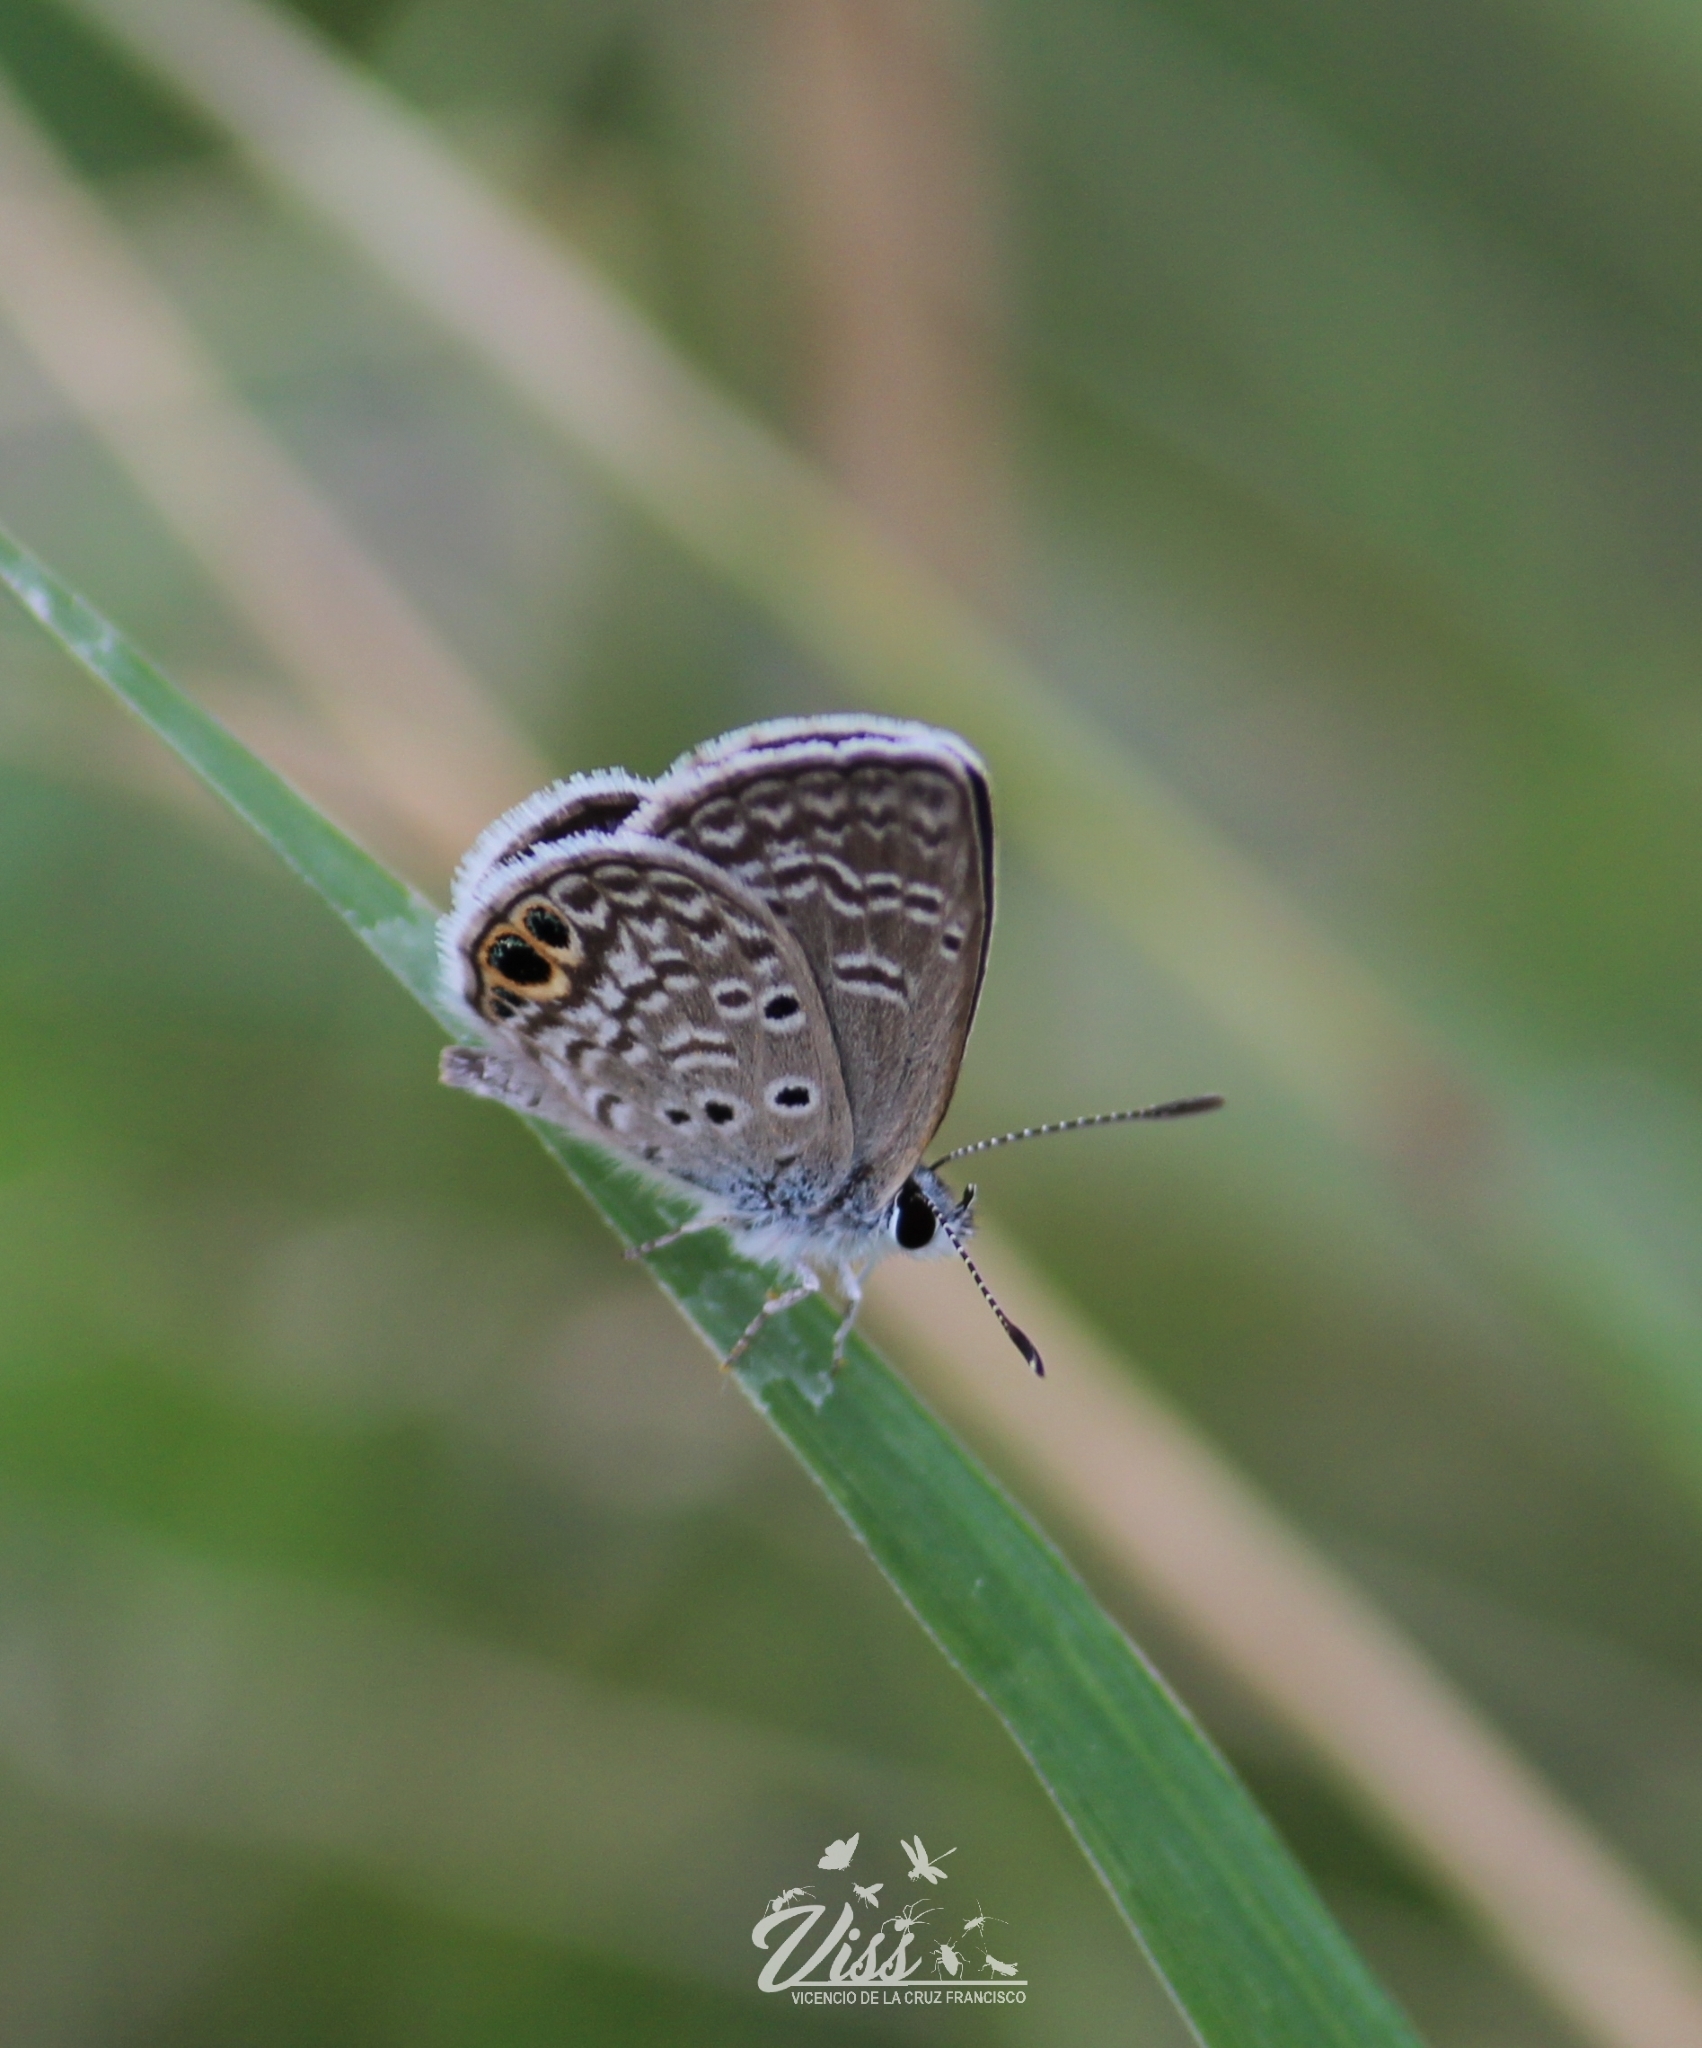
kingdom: Animalia
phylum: Arthropoda
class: Insecta
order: Lepidoptera
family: Lycaenidae
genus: Hemiargus
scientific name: Hemiargus ceraunus
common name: Ceraunus blue
